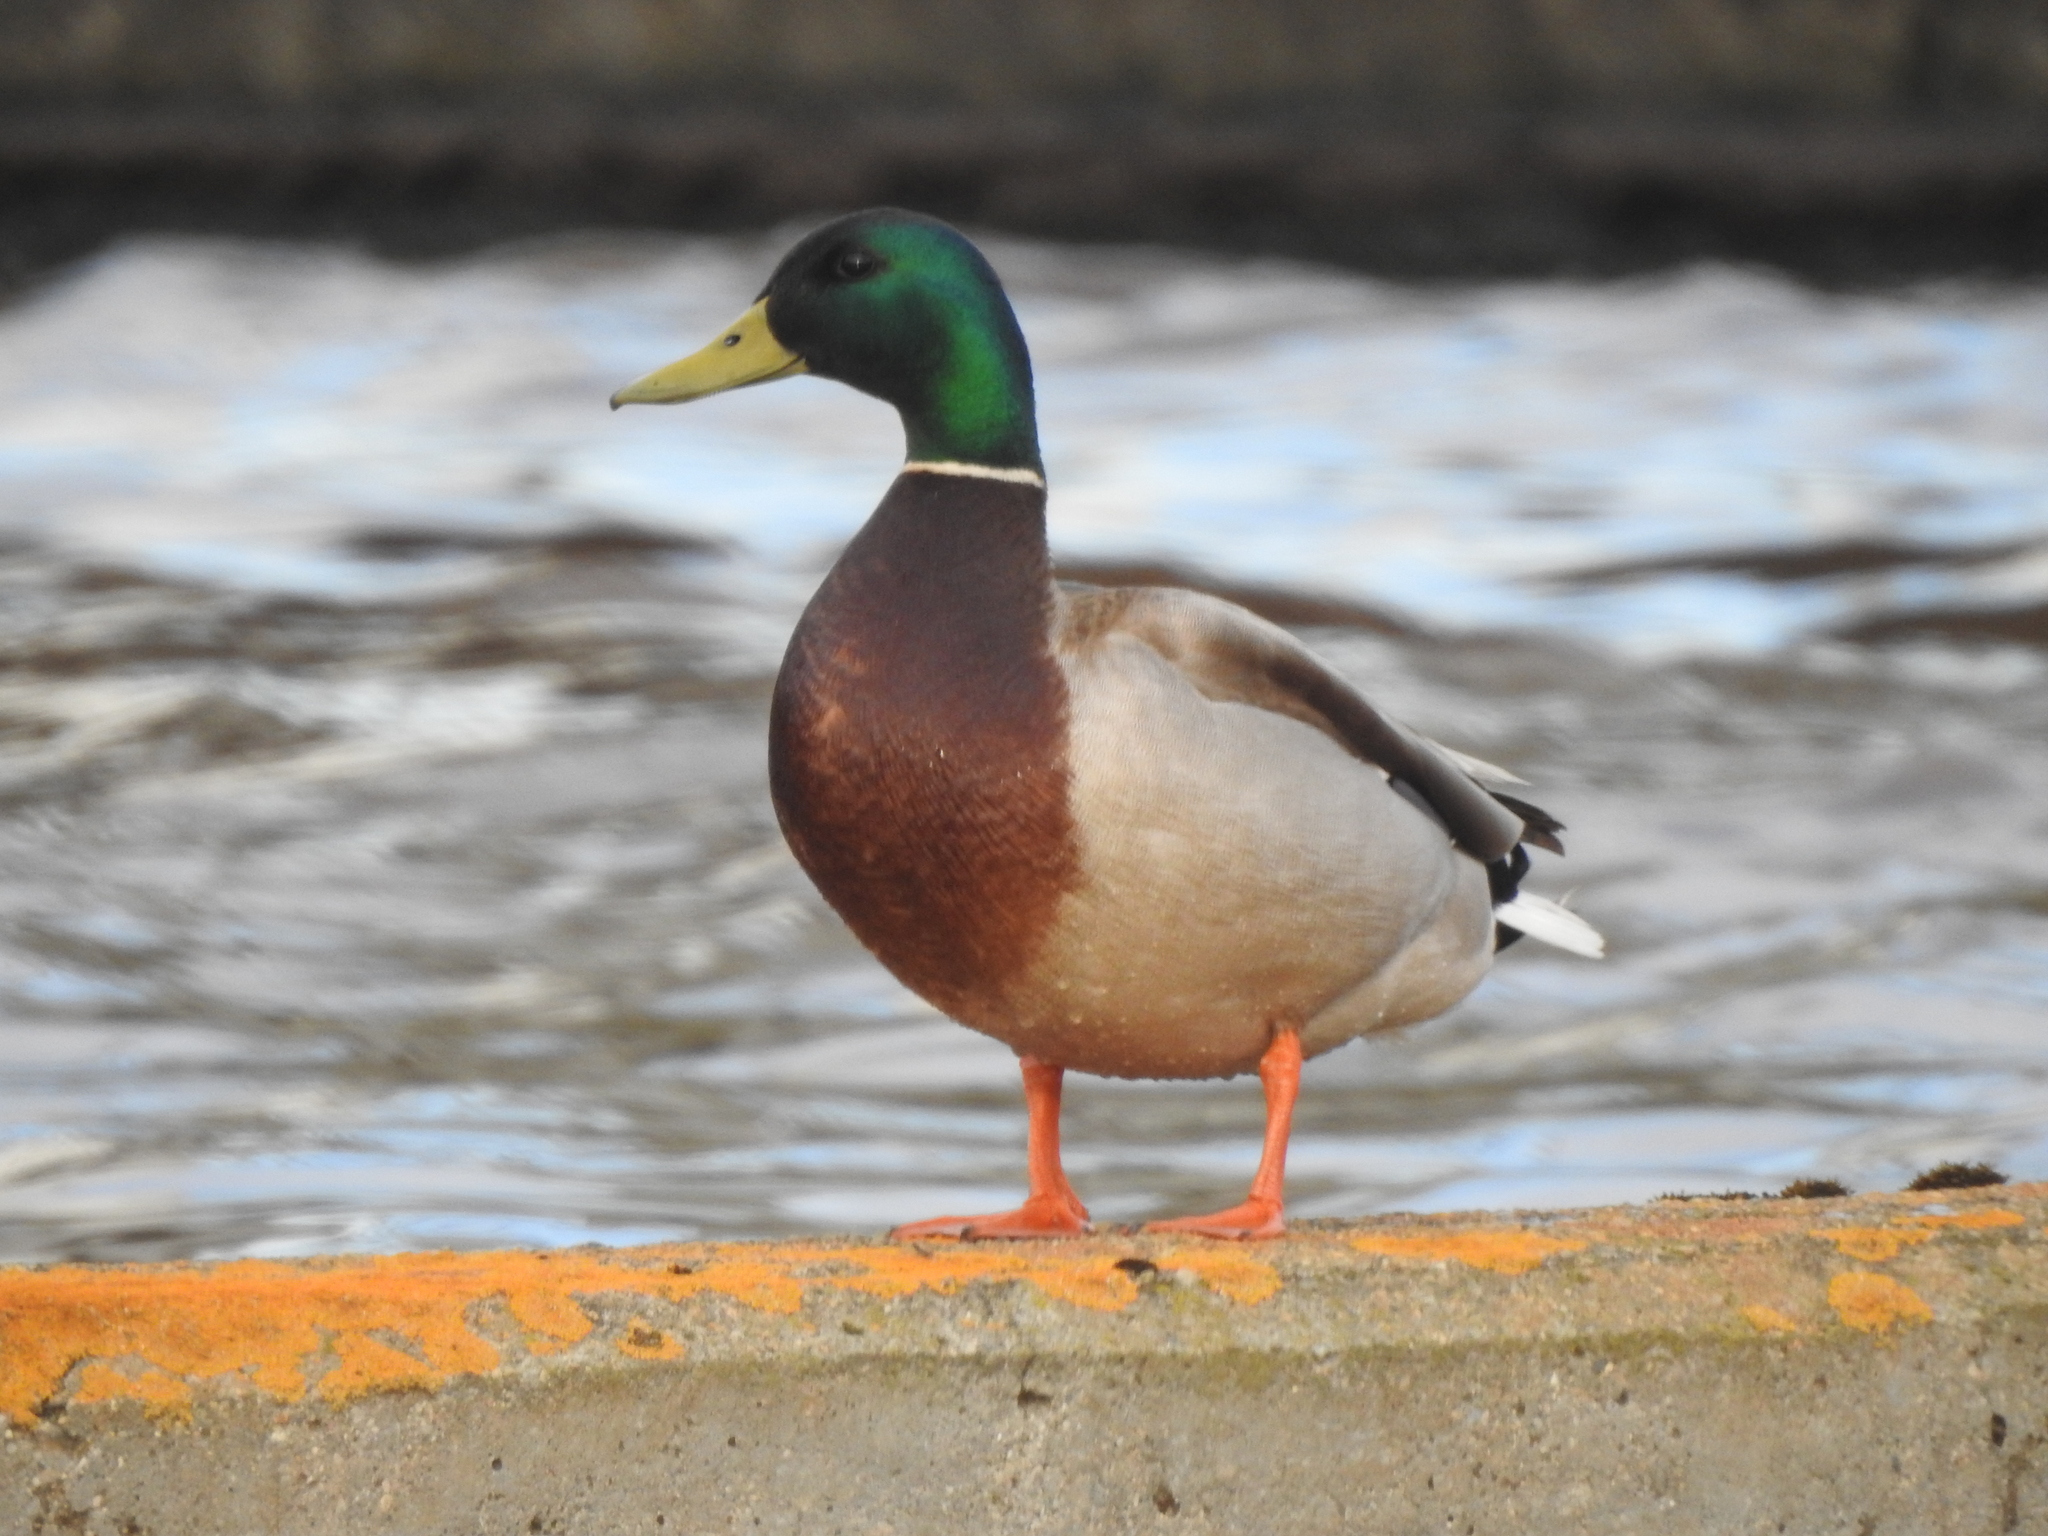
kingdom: Animalia
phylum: Chordata
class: Aves
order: Anseriformes
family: Anatidae
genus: Anas
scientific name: Anas platyrhynchos
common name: Mallard
